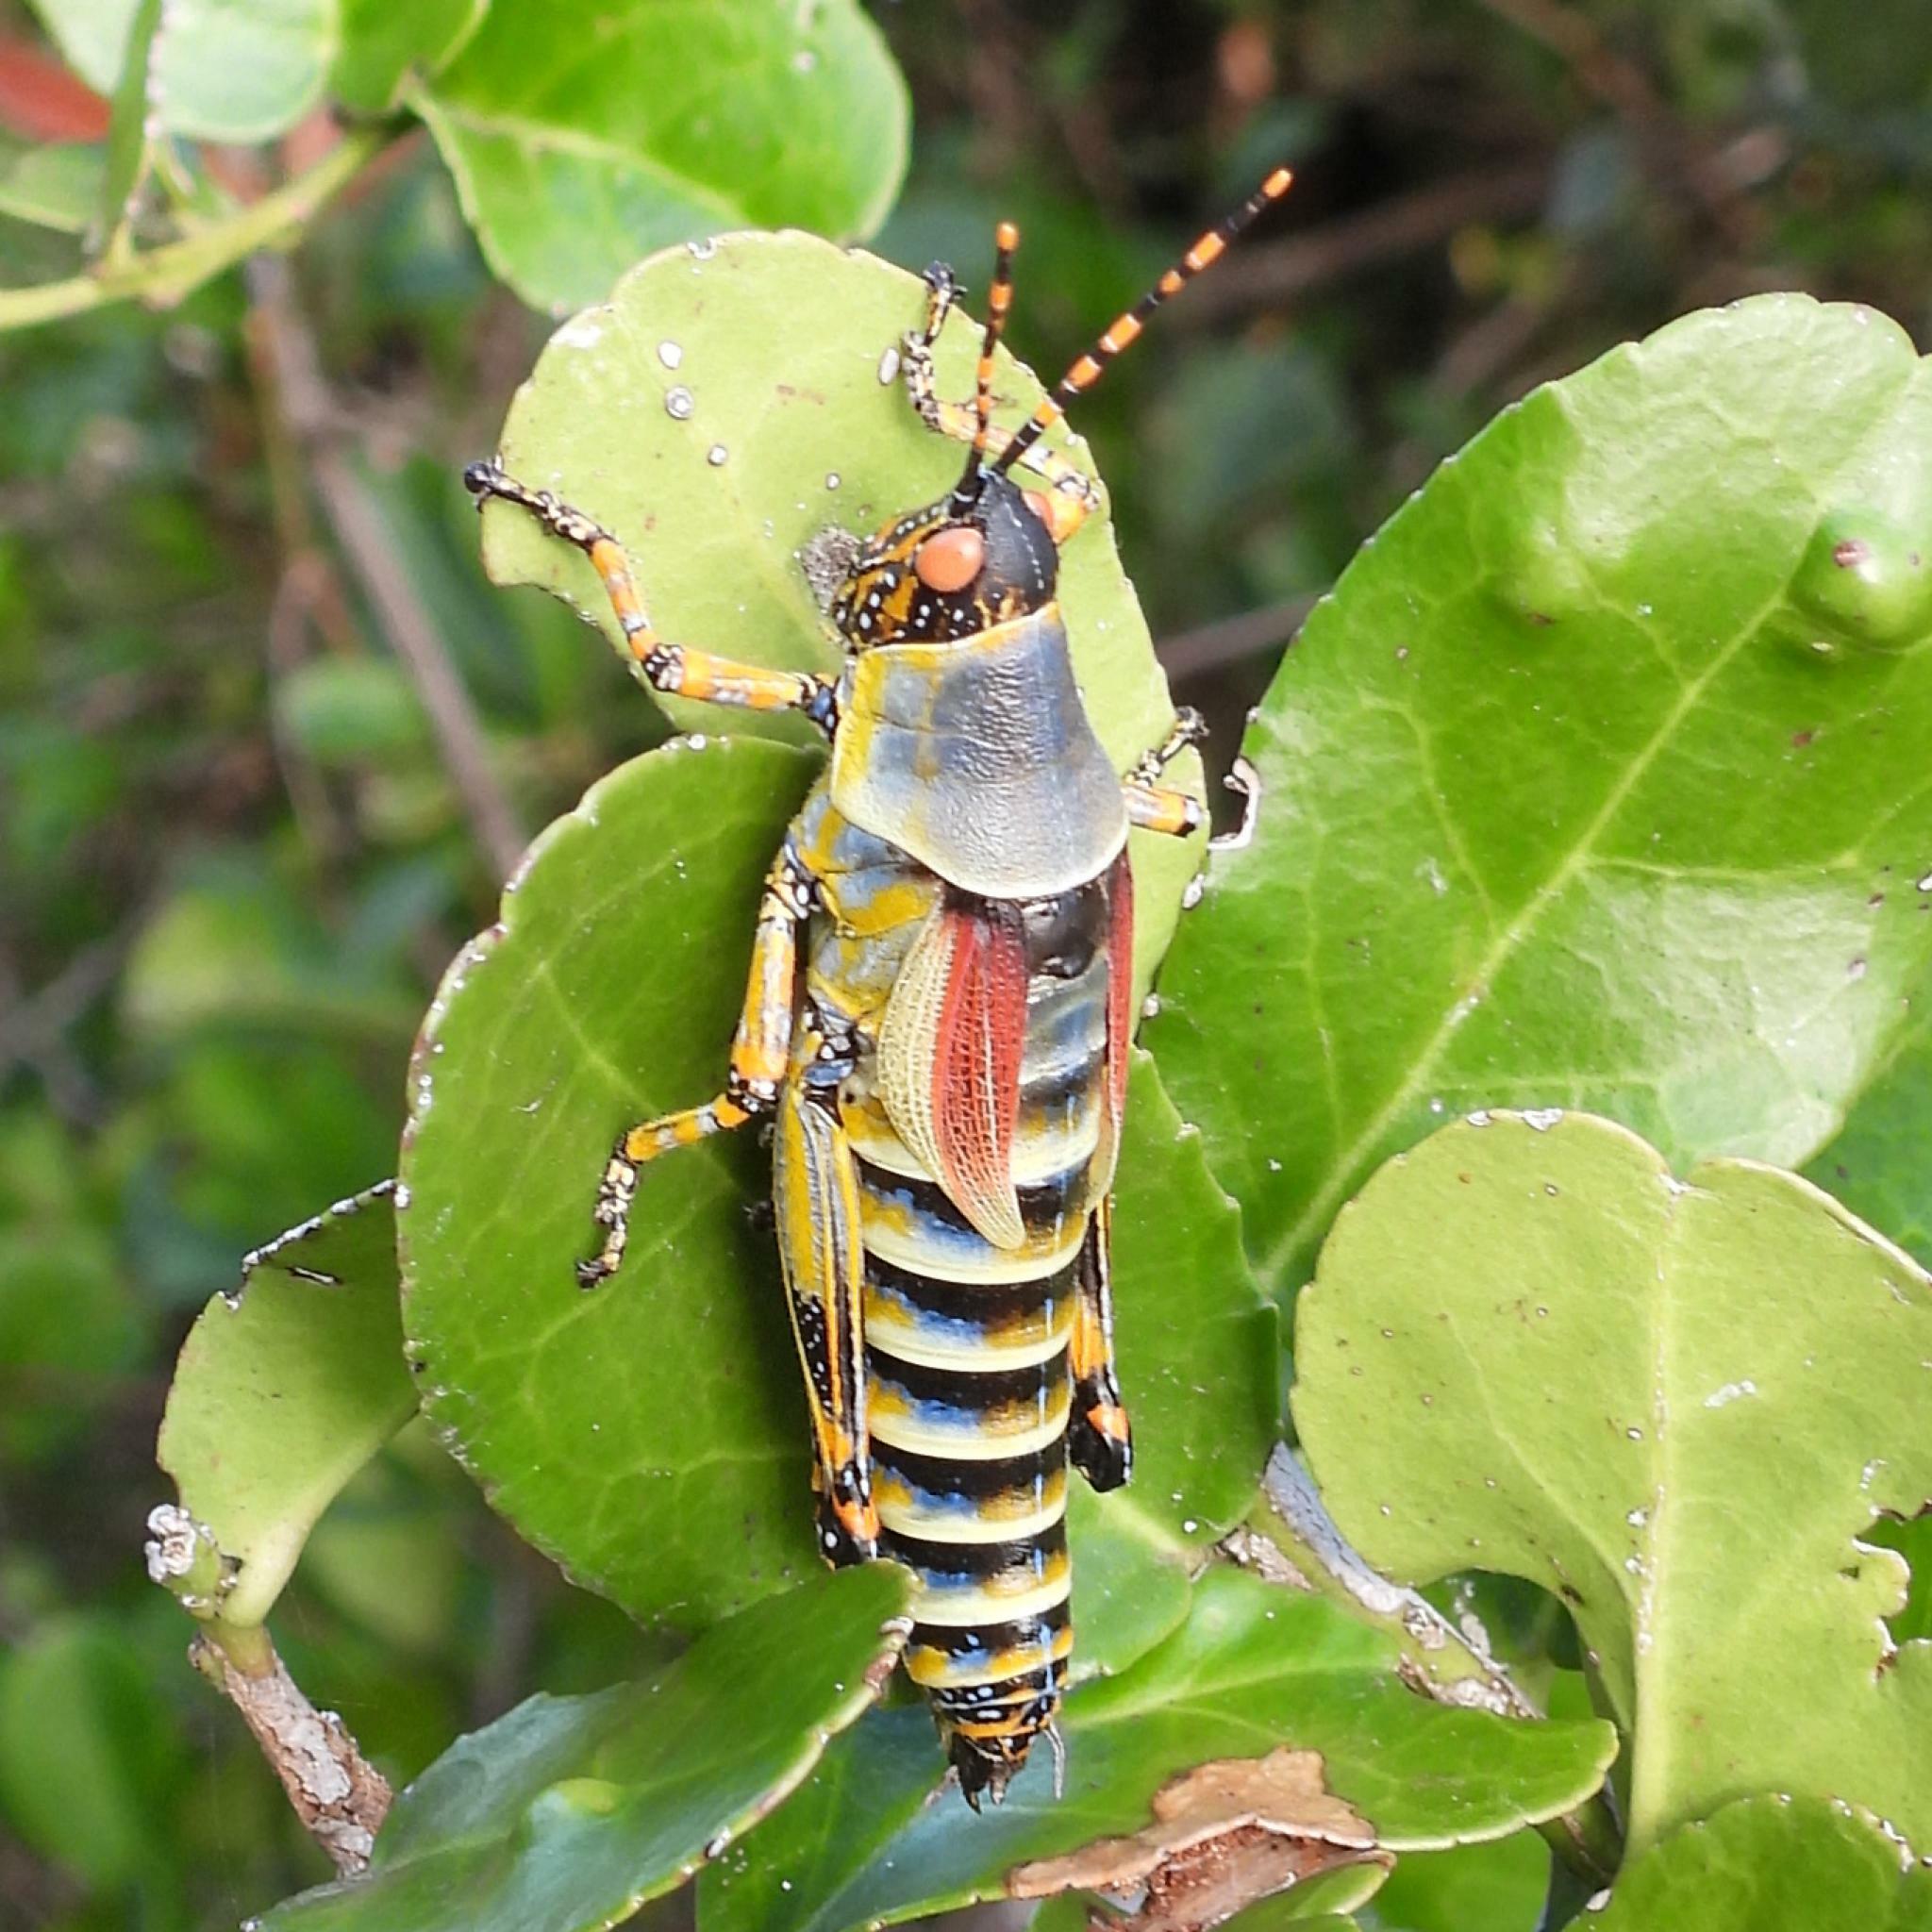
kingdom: Animalia
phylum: Arthropoda
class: Insecta
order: Orthoptera
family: Pyrgomorphidae
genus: Zonocerus
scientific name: Zonocerus elegans
